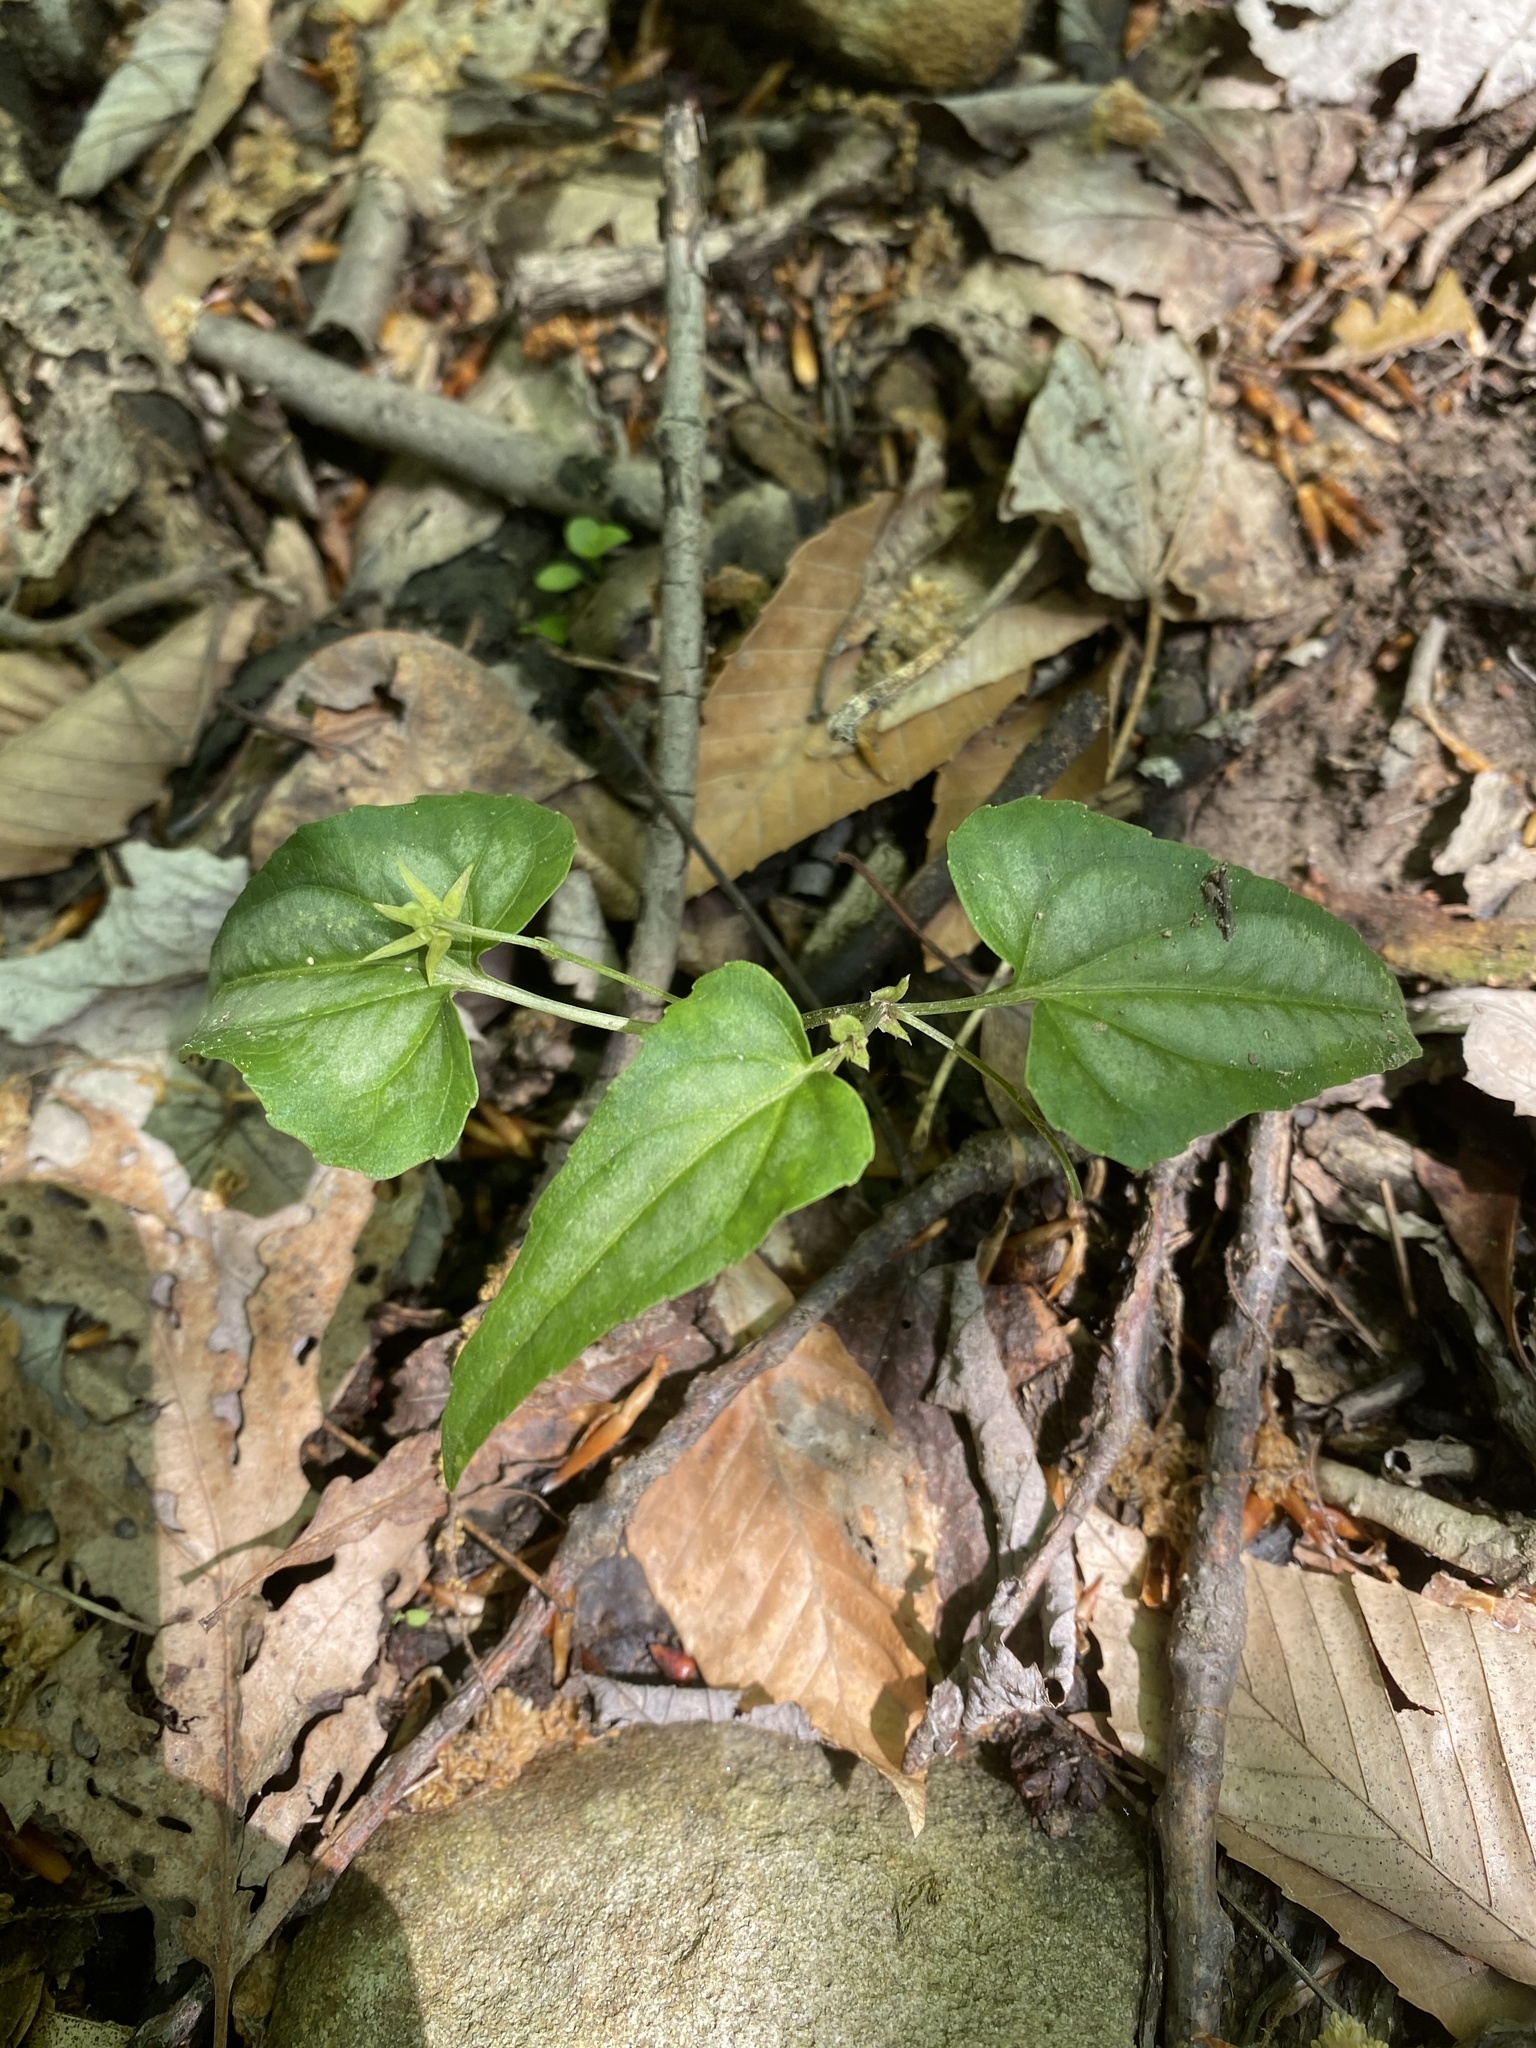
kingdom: Plantae
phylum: Tracheophyta
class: Magnoliopsida
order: Malpighiales
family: Violaceae
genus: Viola
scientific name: Viola hastata
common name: Spear-leaf violet
